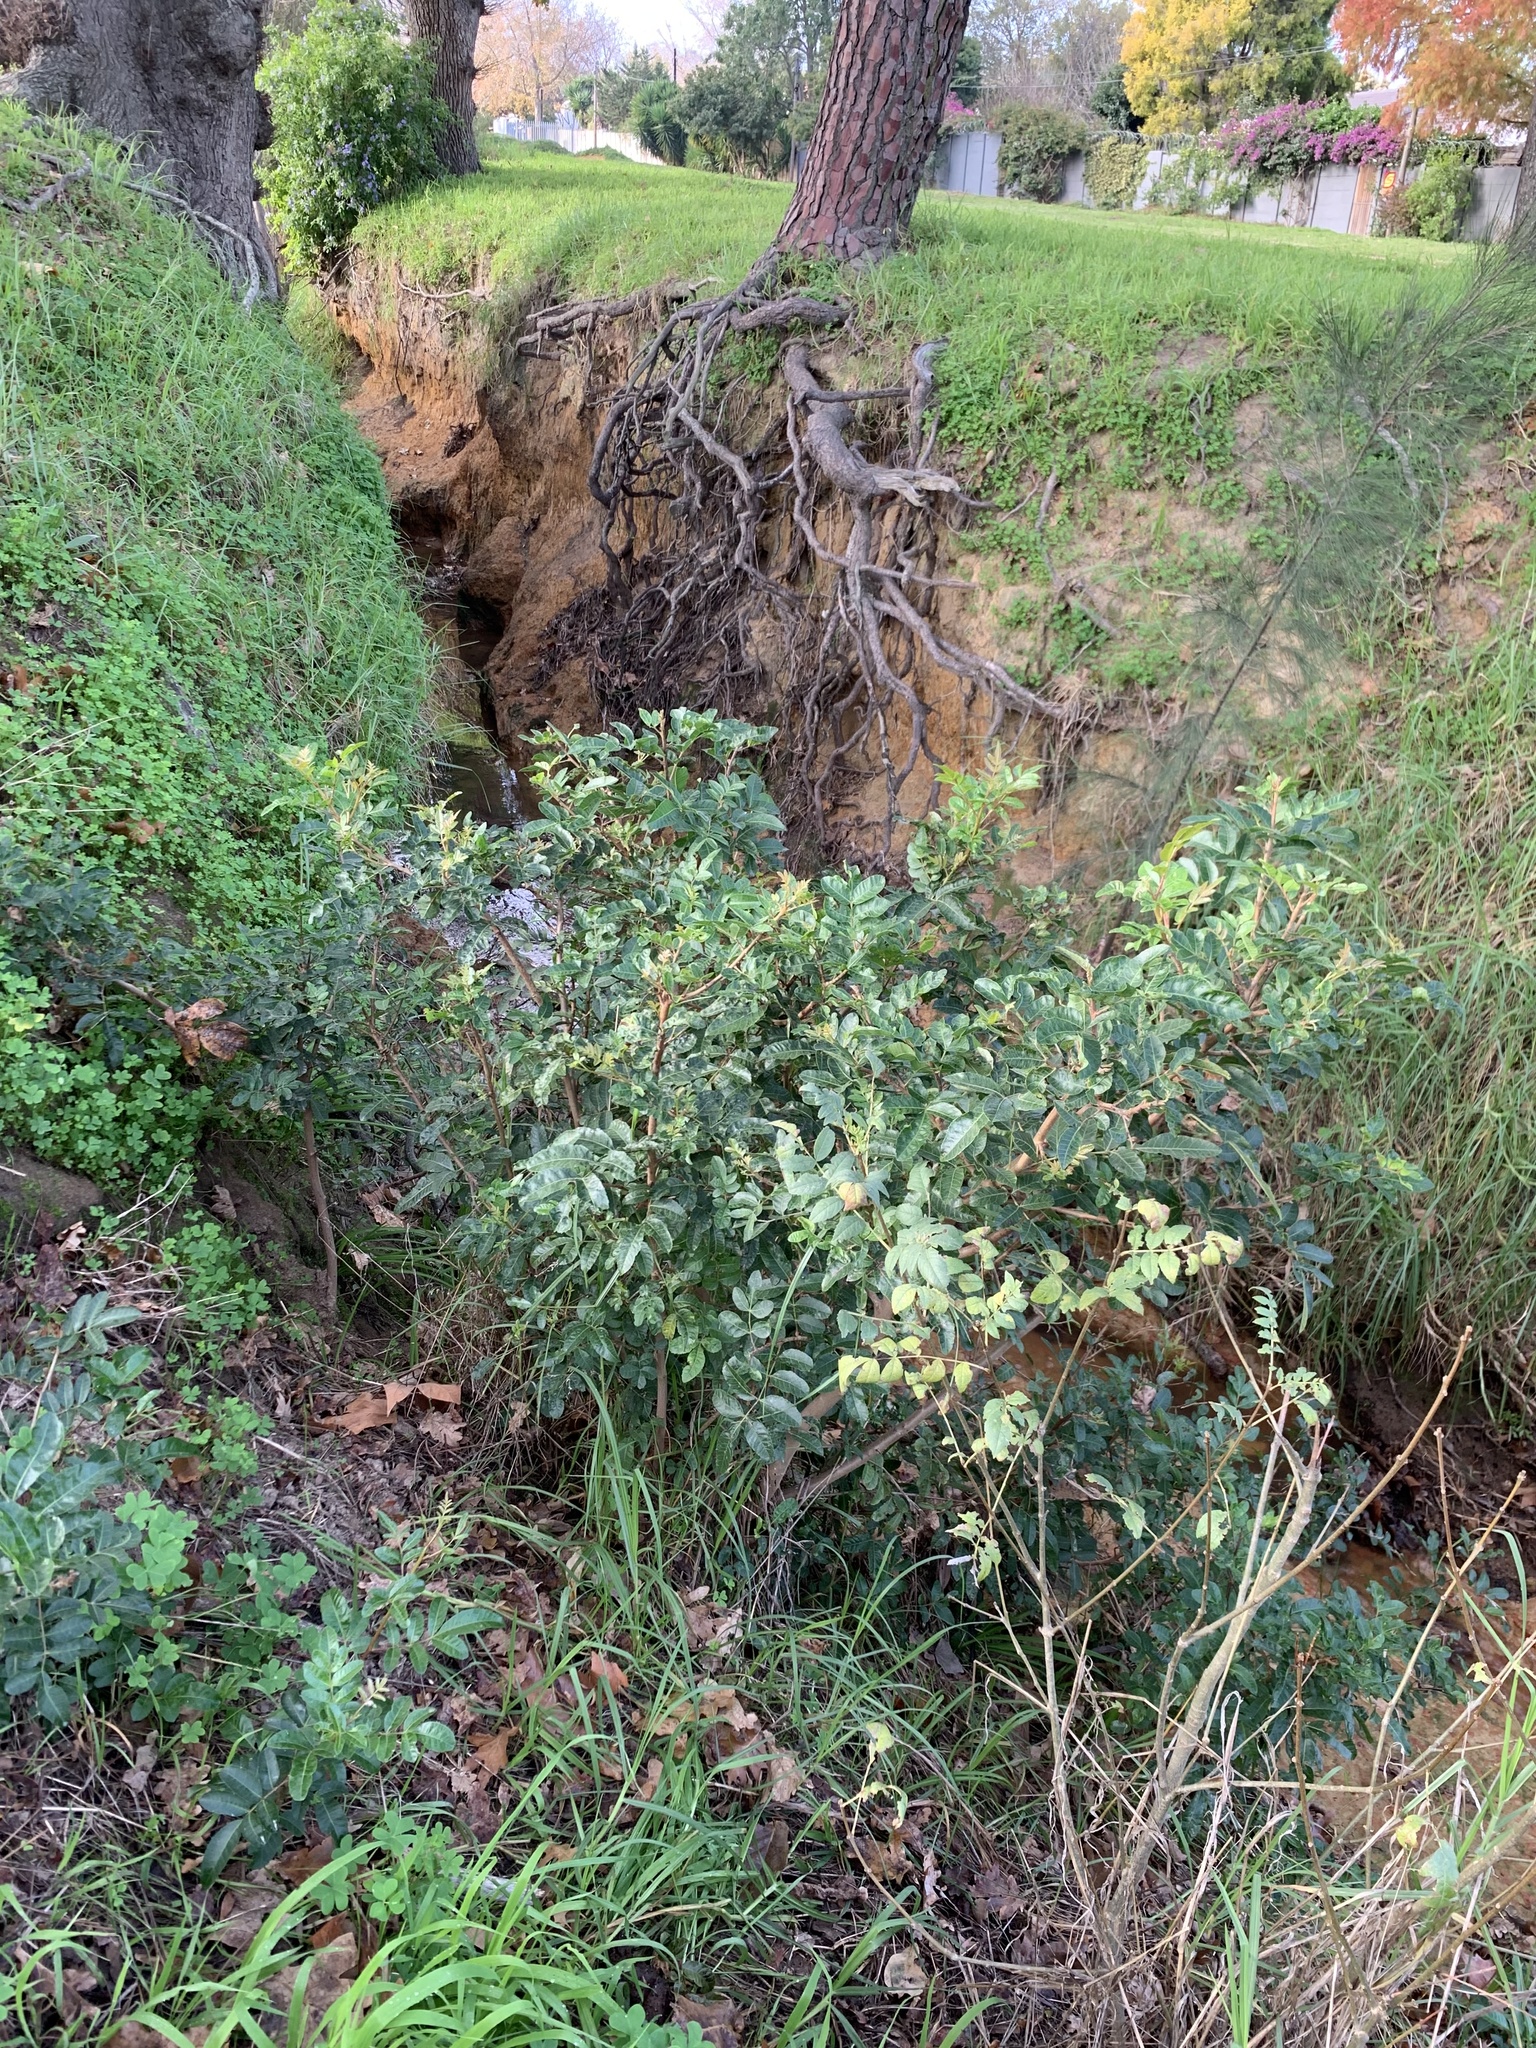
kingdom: Plantae
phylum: Tracheophyta
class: Magnoliopsida
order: Sapindales
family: Anacardiaceae
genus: Schinus
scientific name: Schinus terebinthifolia
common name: Brazilian peppertree
